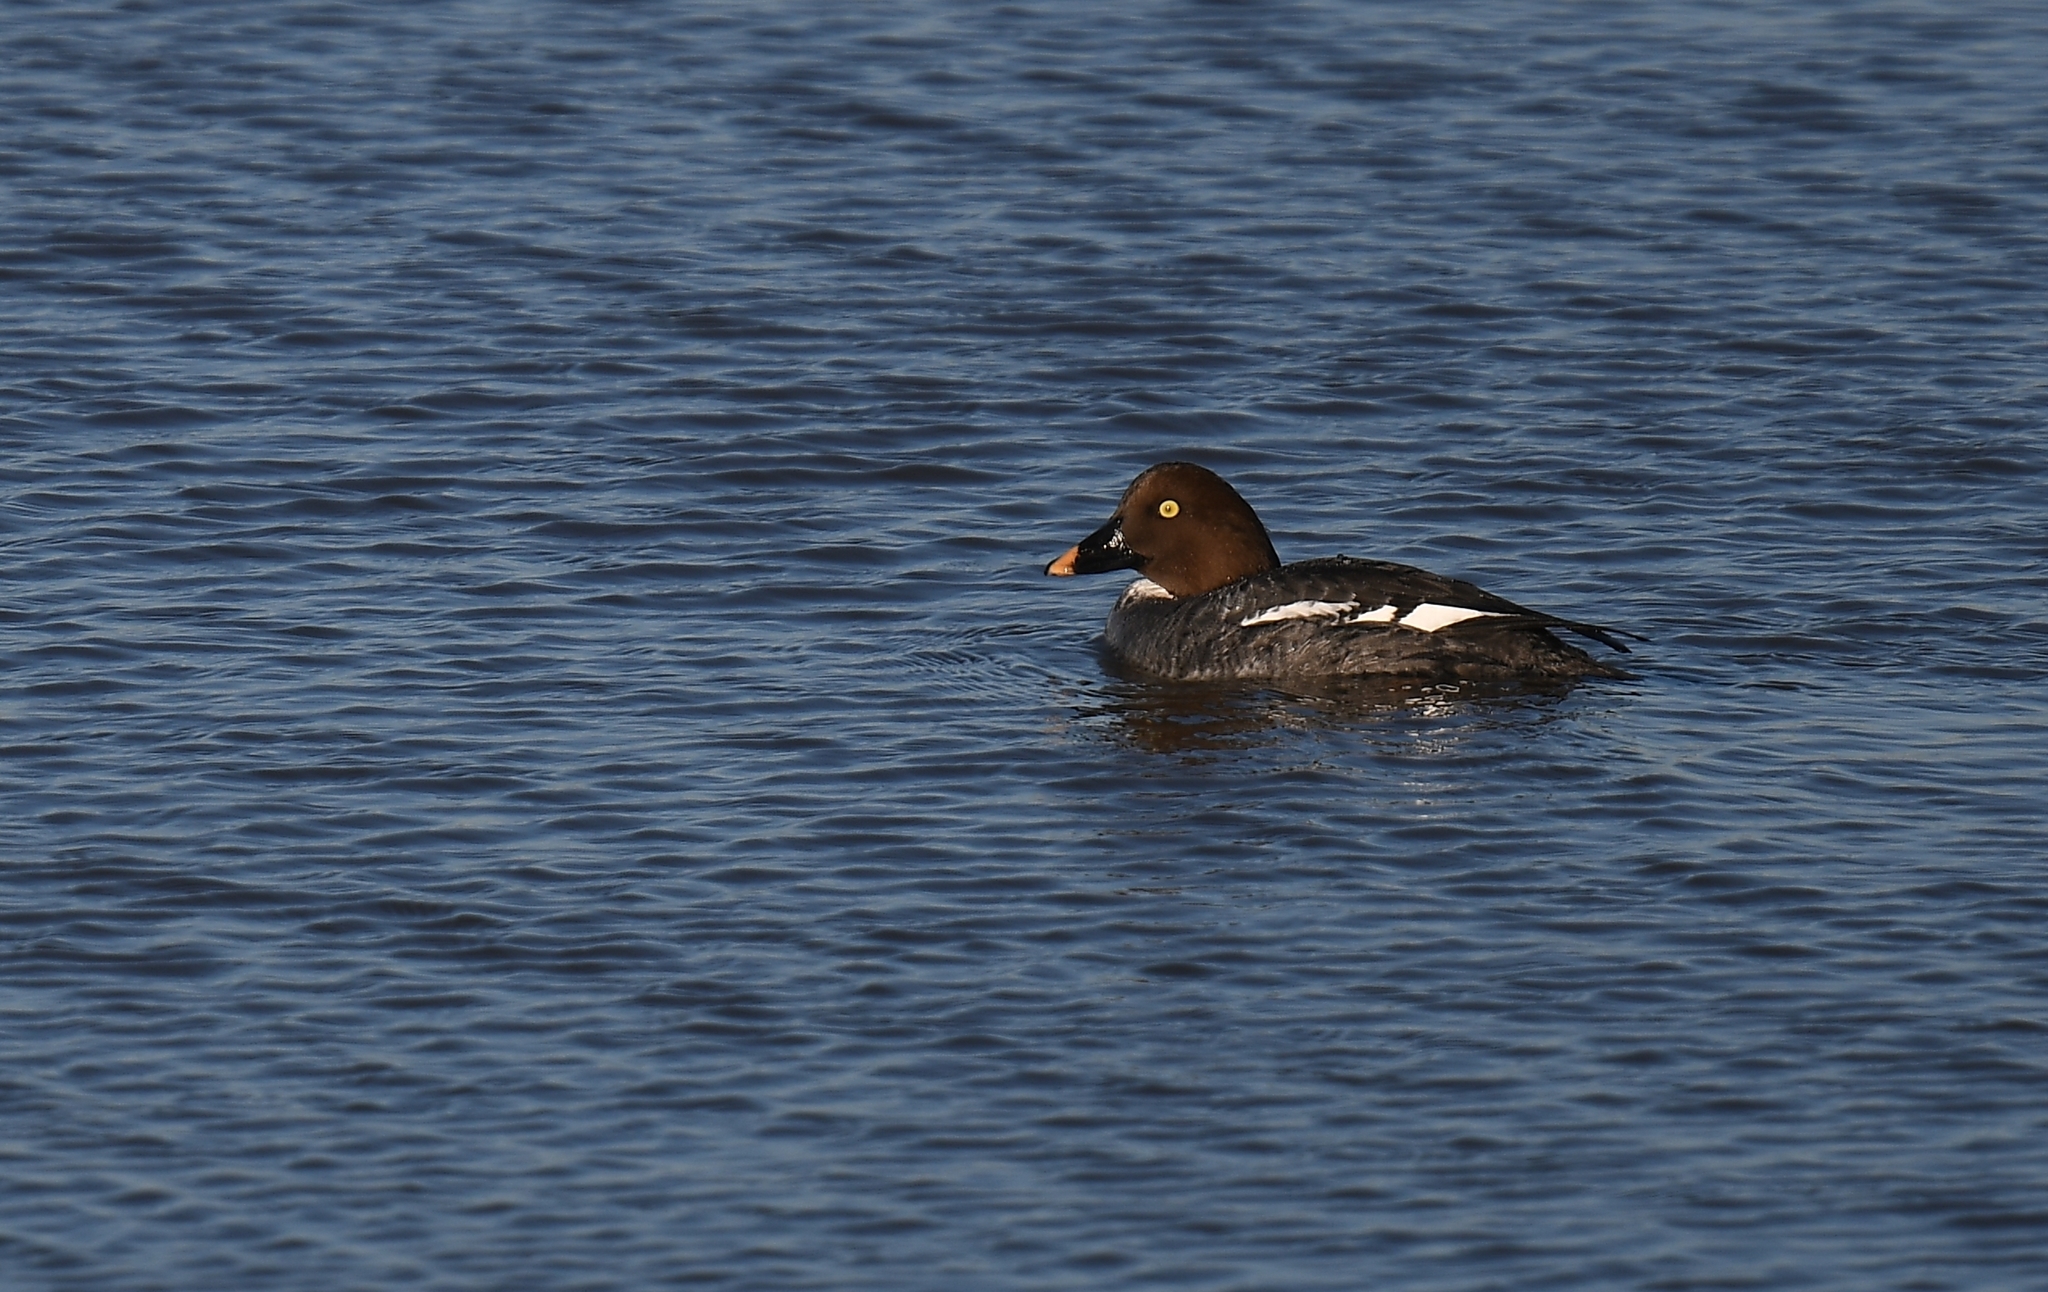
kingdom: Animalia
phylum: Chordata
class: Aves
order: Anseriformes
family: Anatidae
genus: Bucephala
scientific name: Bucephala clangula
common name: Common goldeneye
